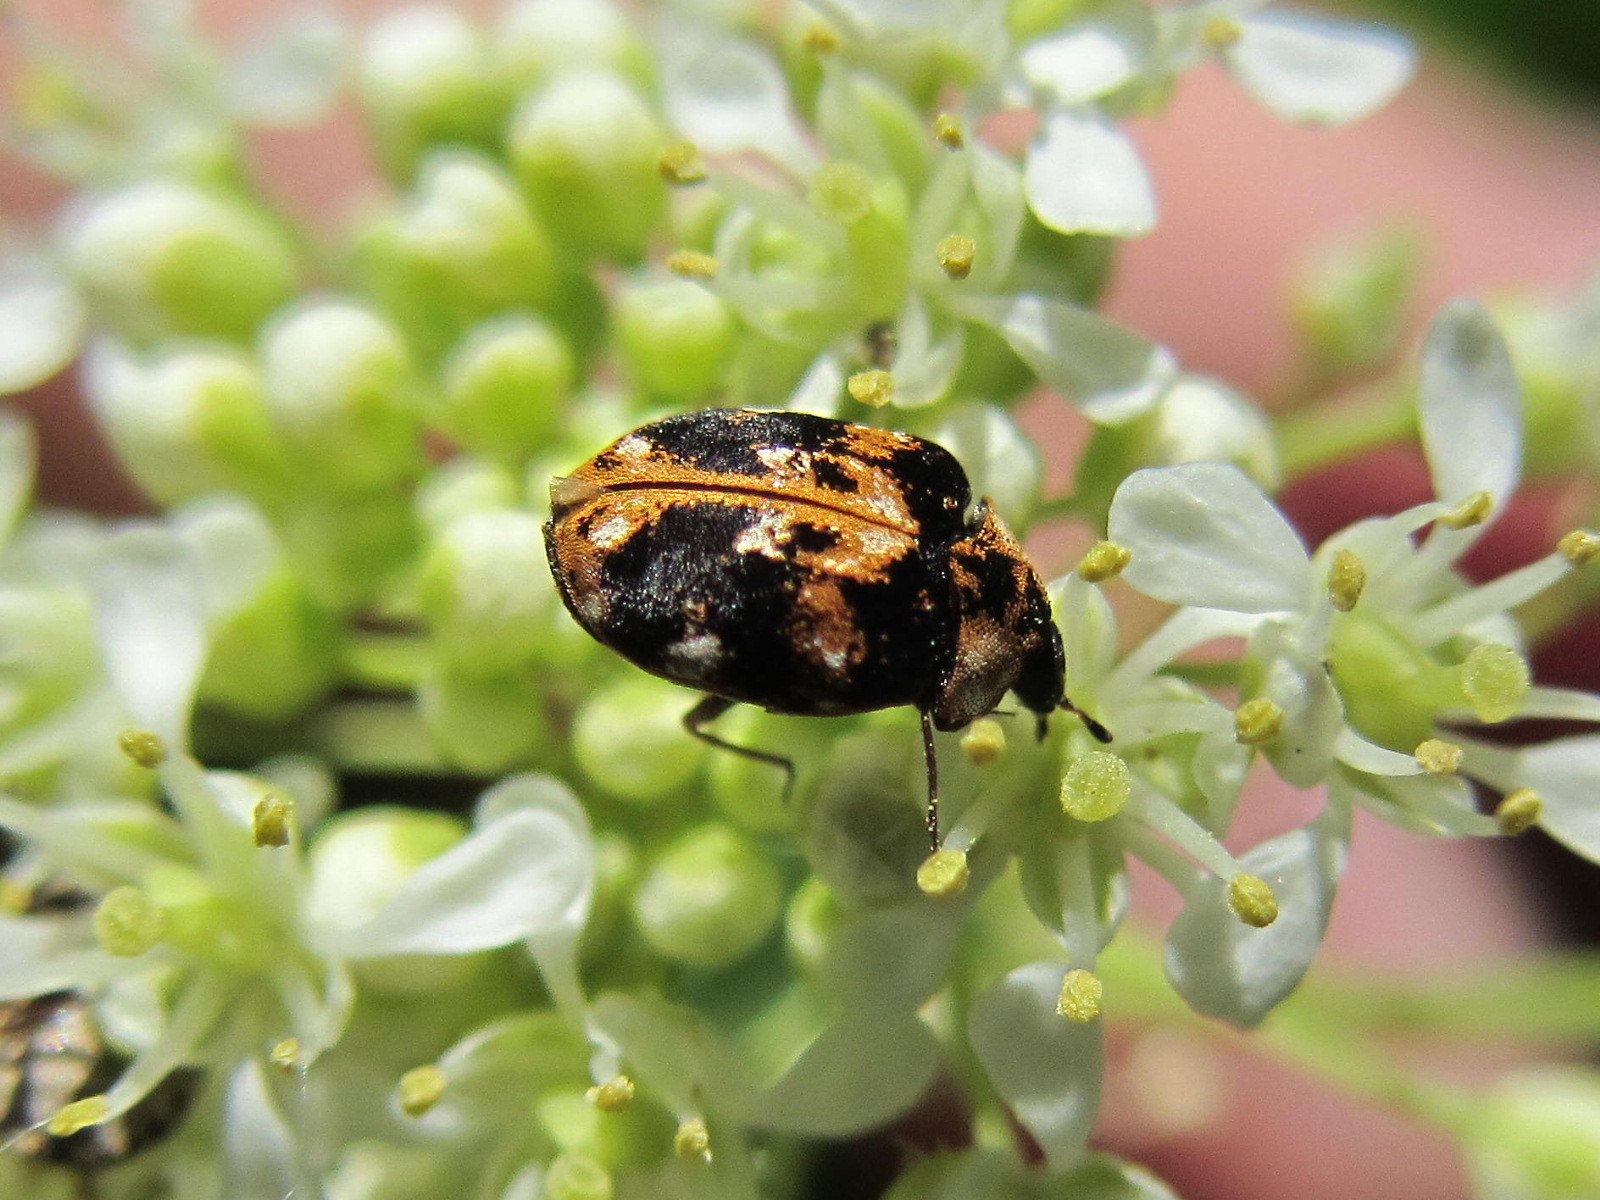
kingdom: Animalia
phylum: Arthropoda
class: Insecta
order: Coleoptera
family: Dermestidae
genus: Anthrenus
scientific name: Anthrenus picturatus
